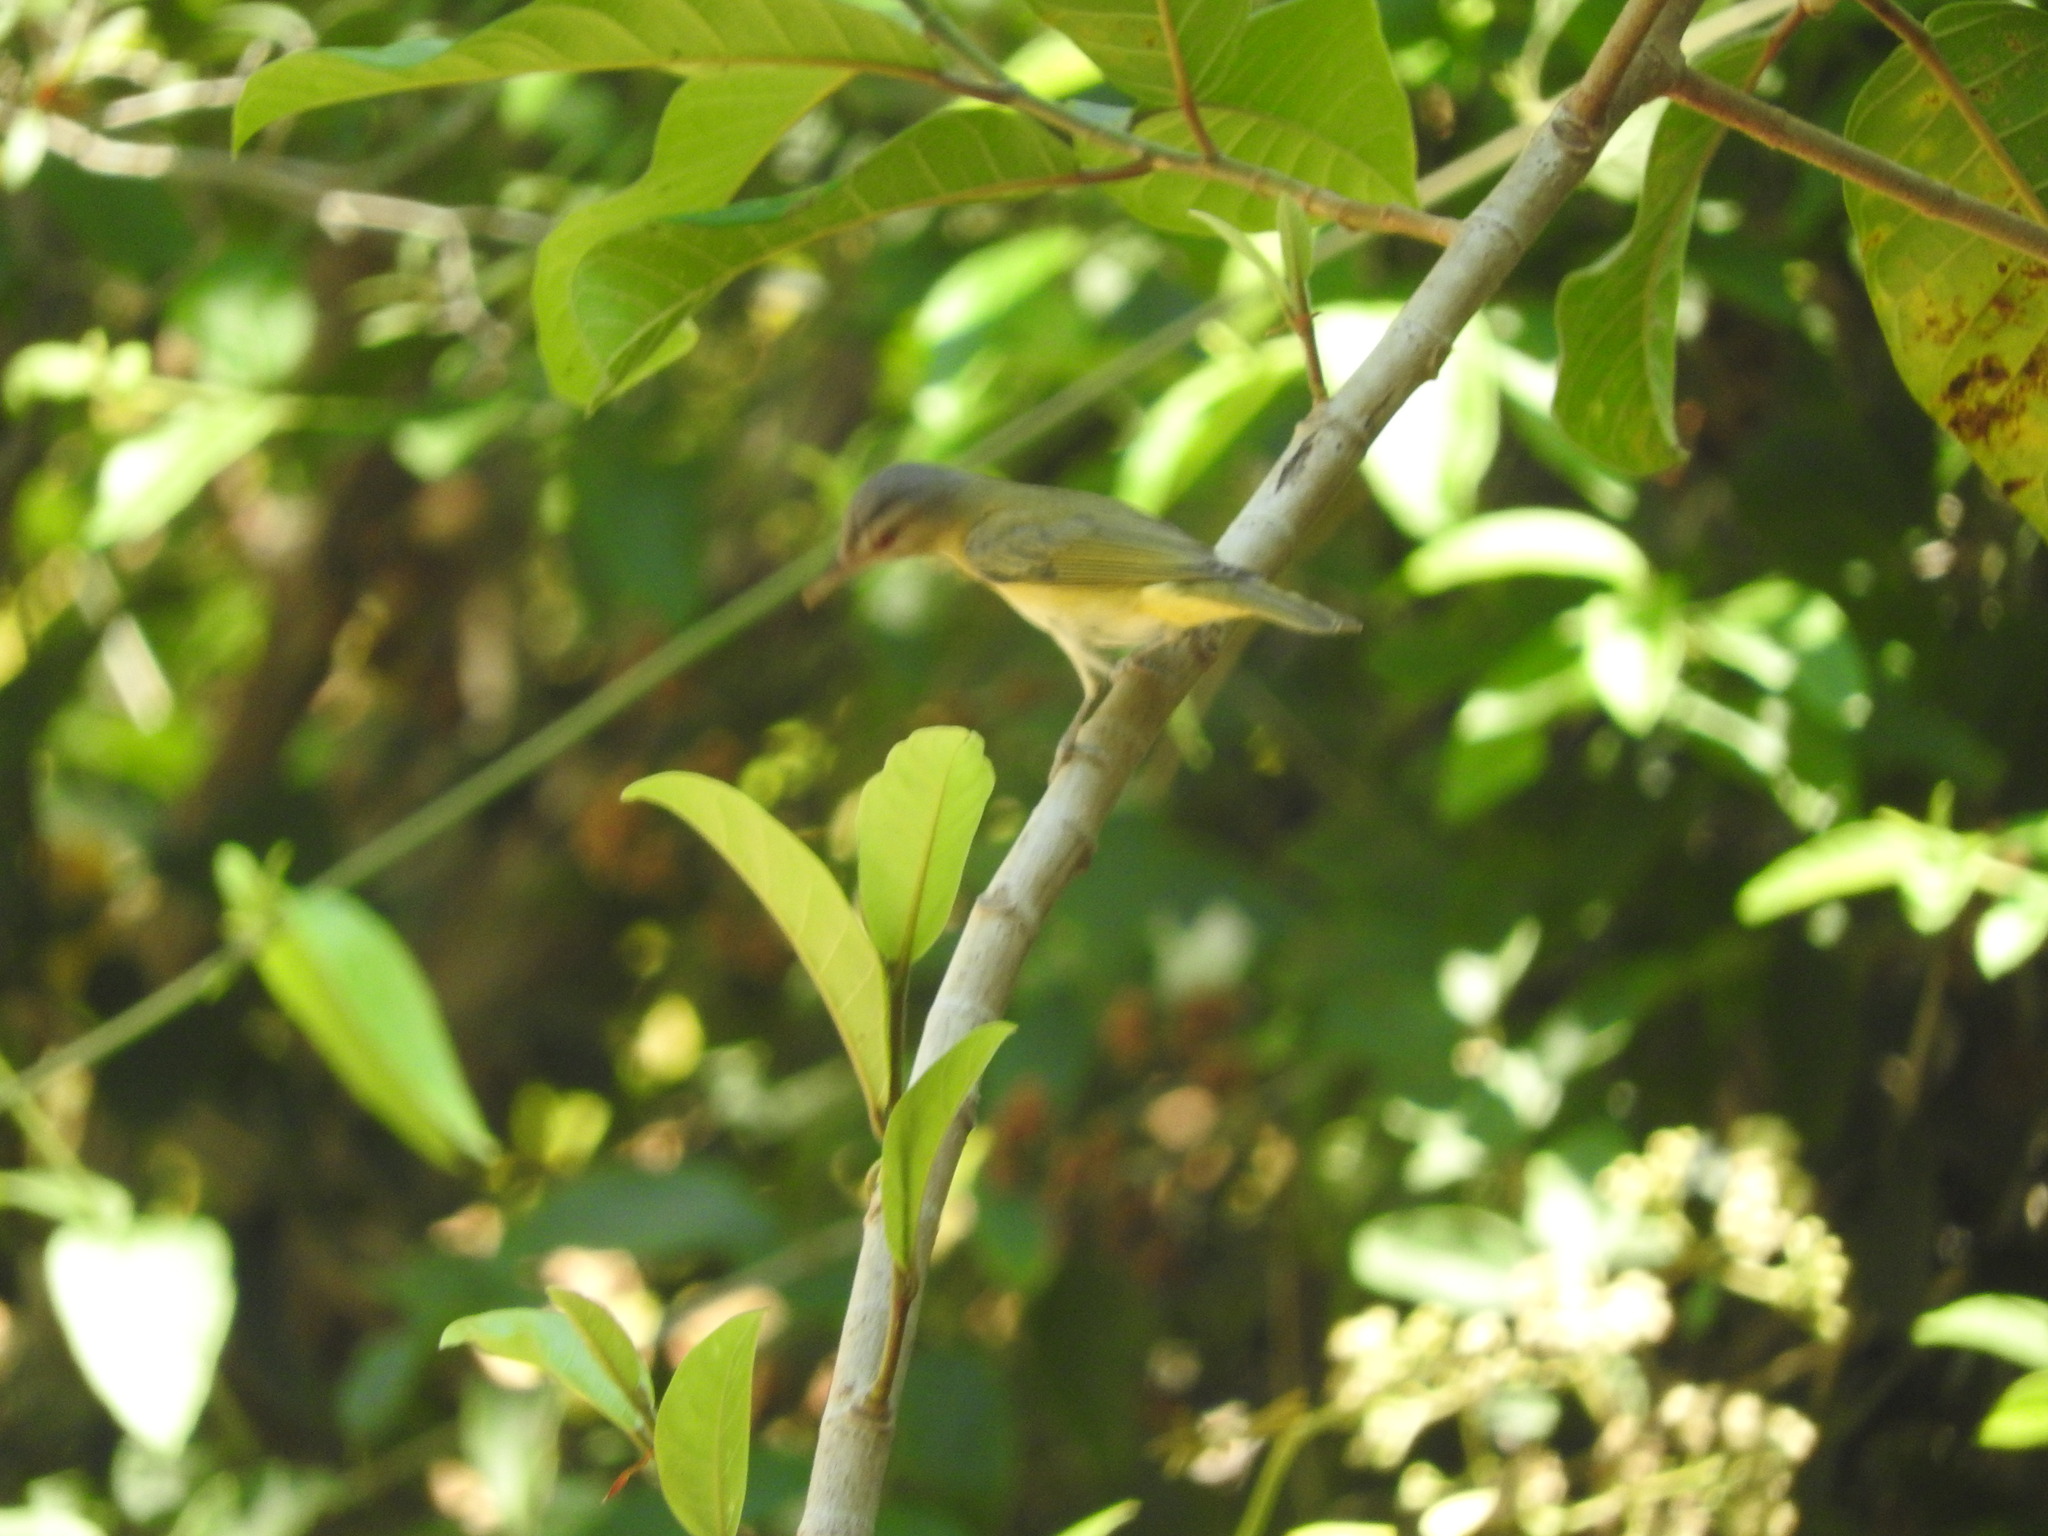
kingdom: Animalia
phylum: Chordata
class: Aves
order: Passeriformes
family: Vireonidae
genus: Vireo
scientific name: Vireo flavoviridis
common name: Yellow-green vireo
